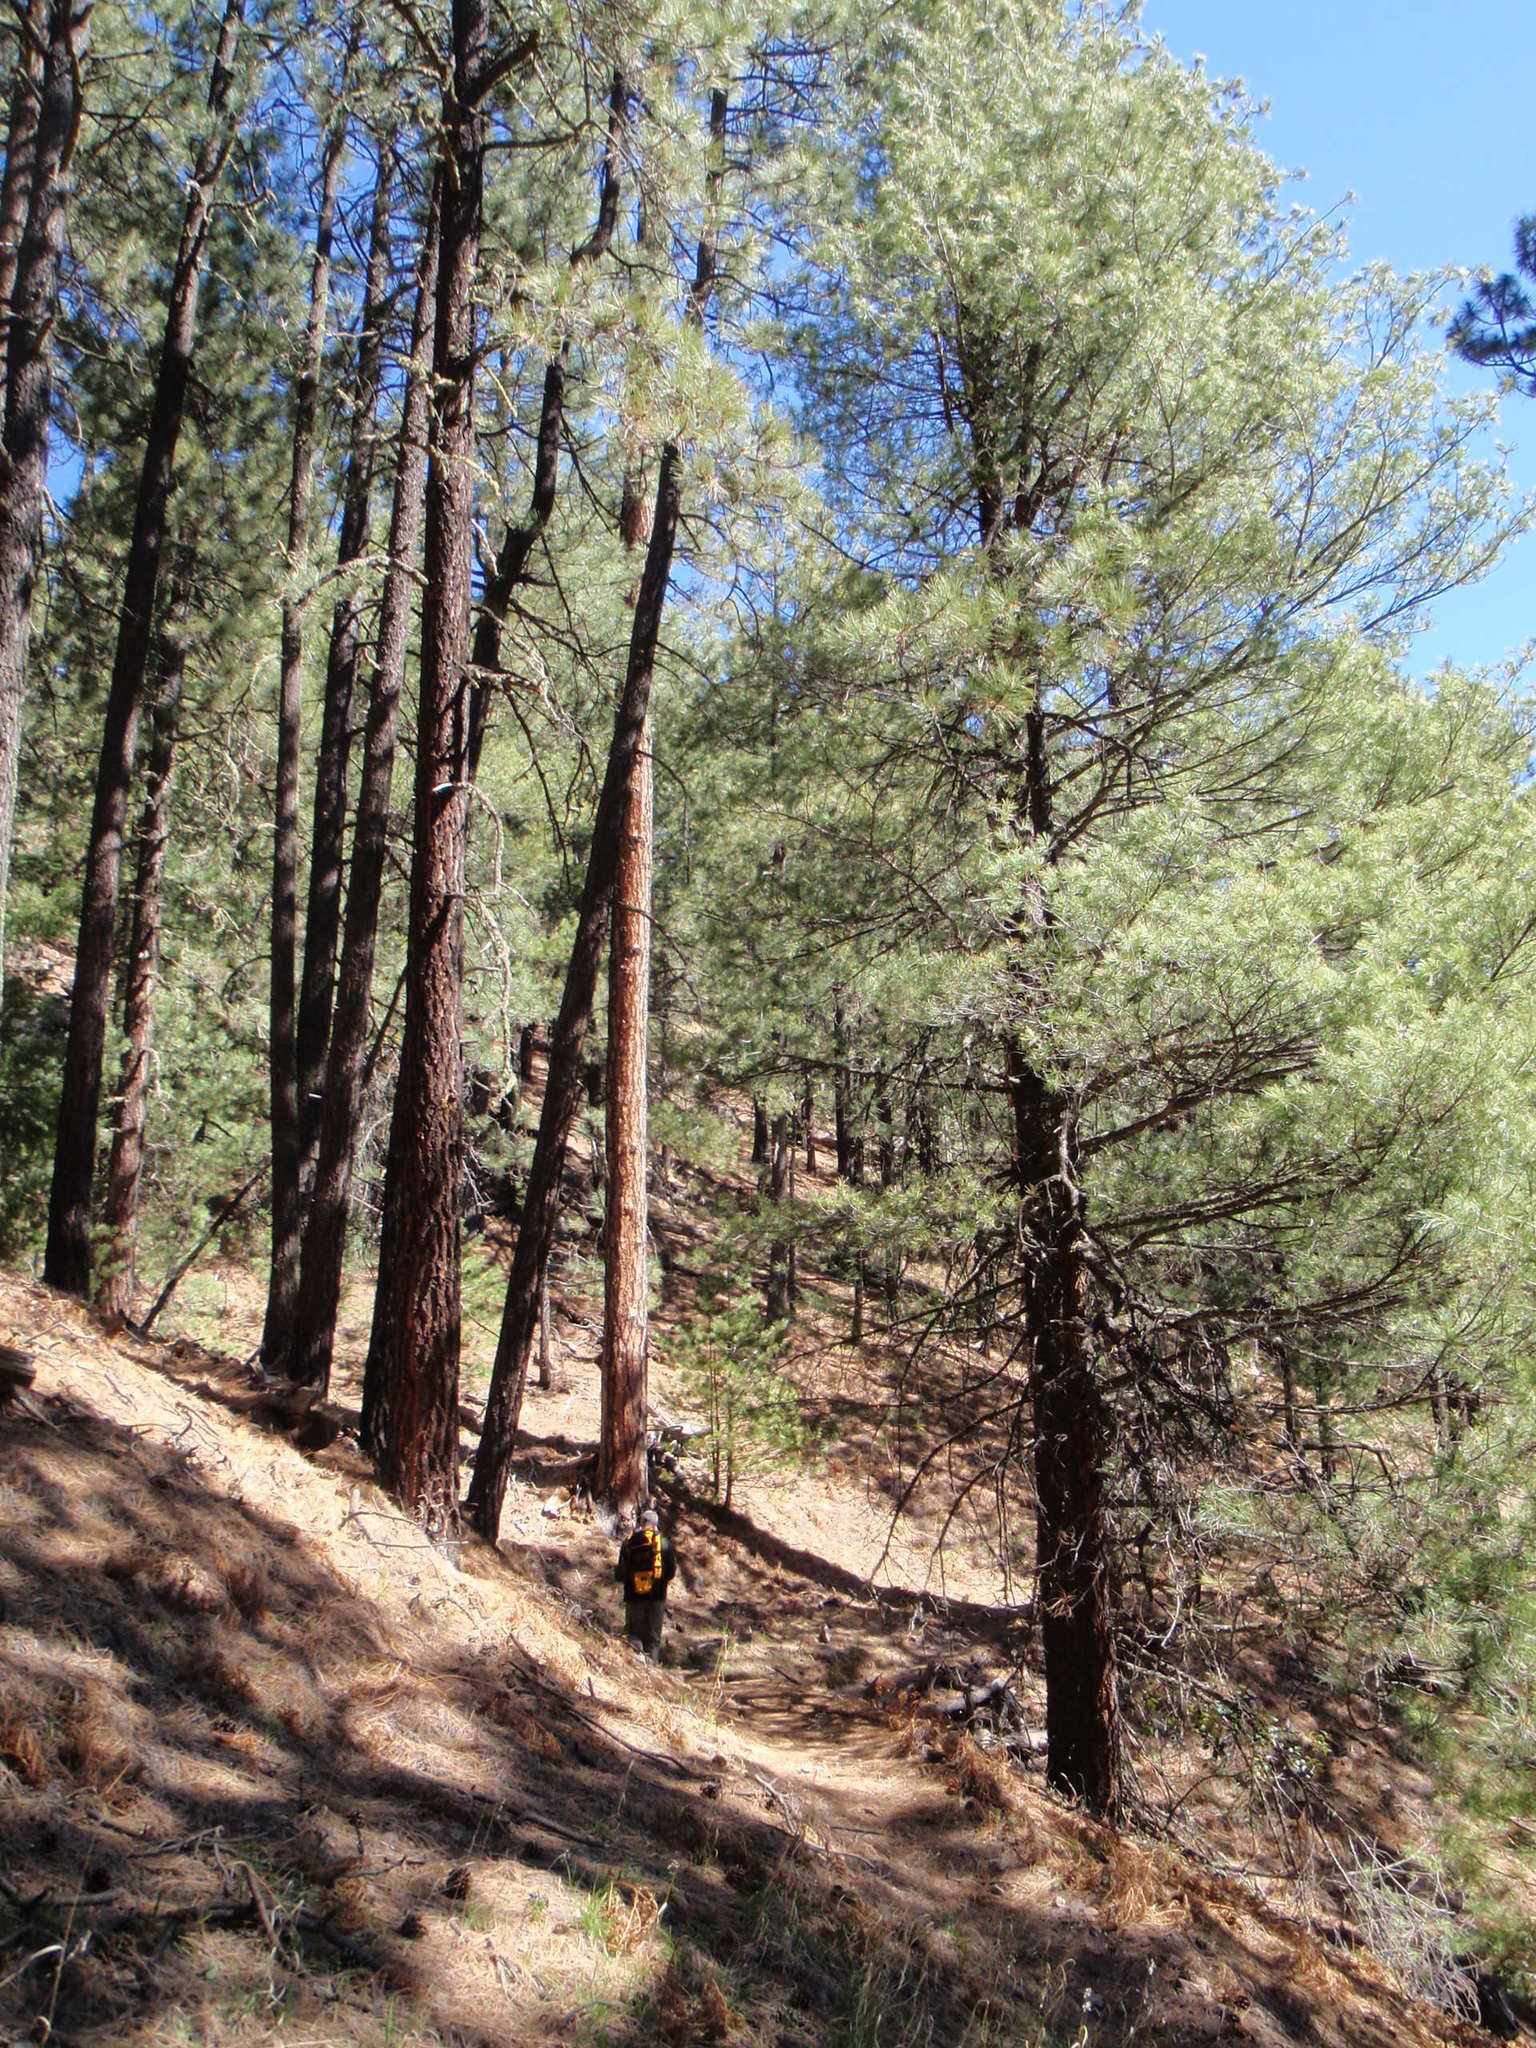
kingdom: Plantae
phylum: Tracheophyta
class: Pinopsida
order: Pinales
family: Pinaceae
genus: Pinus
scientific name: Pinus ponderosa
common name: Western yellow-pine
